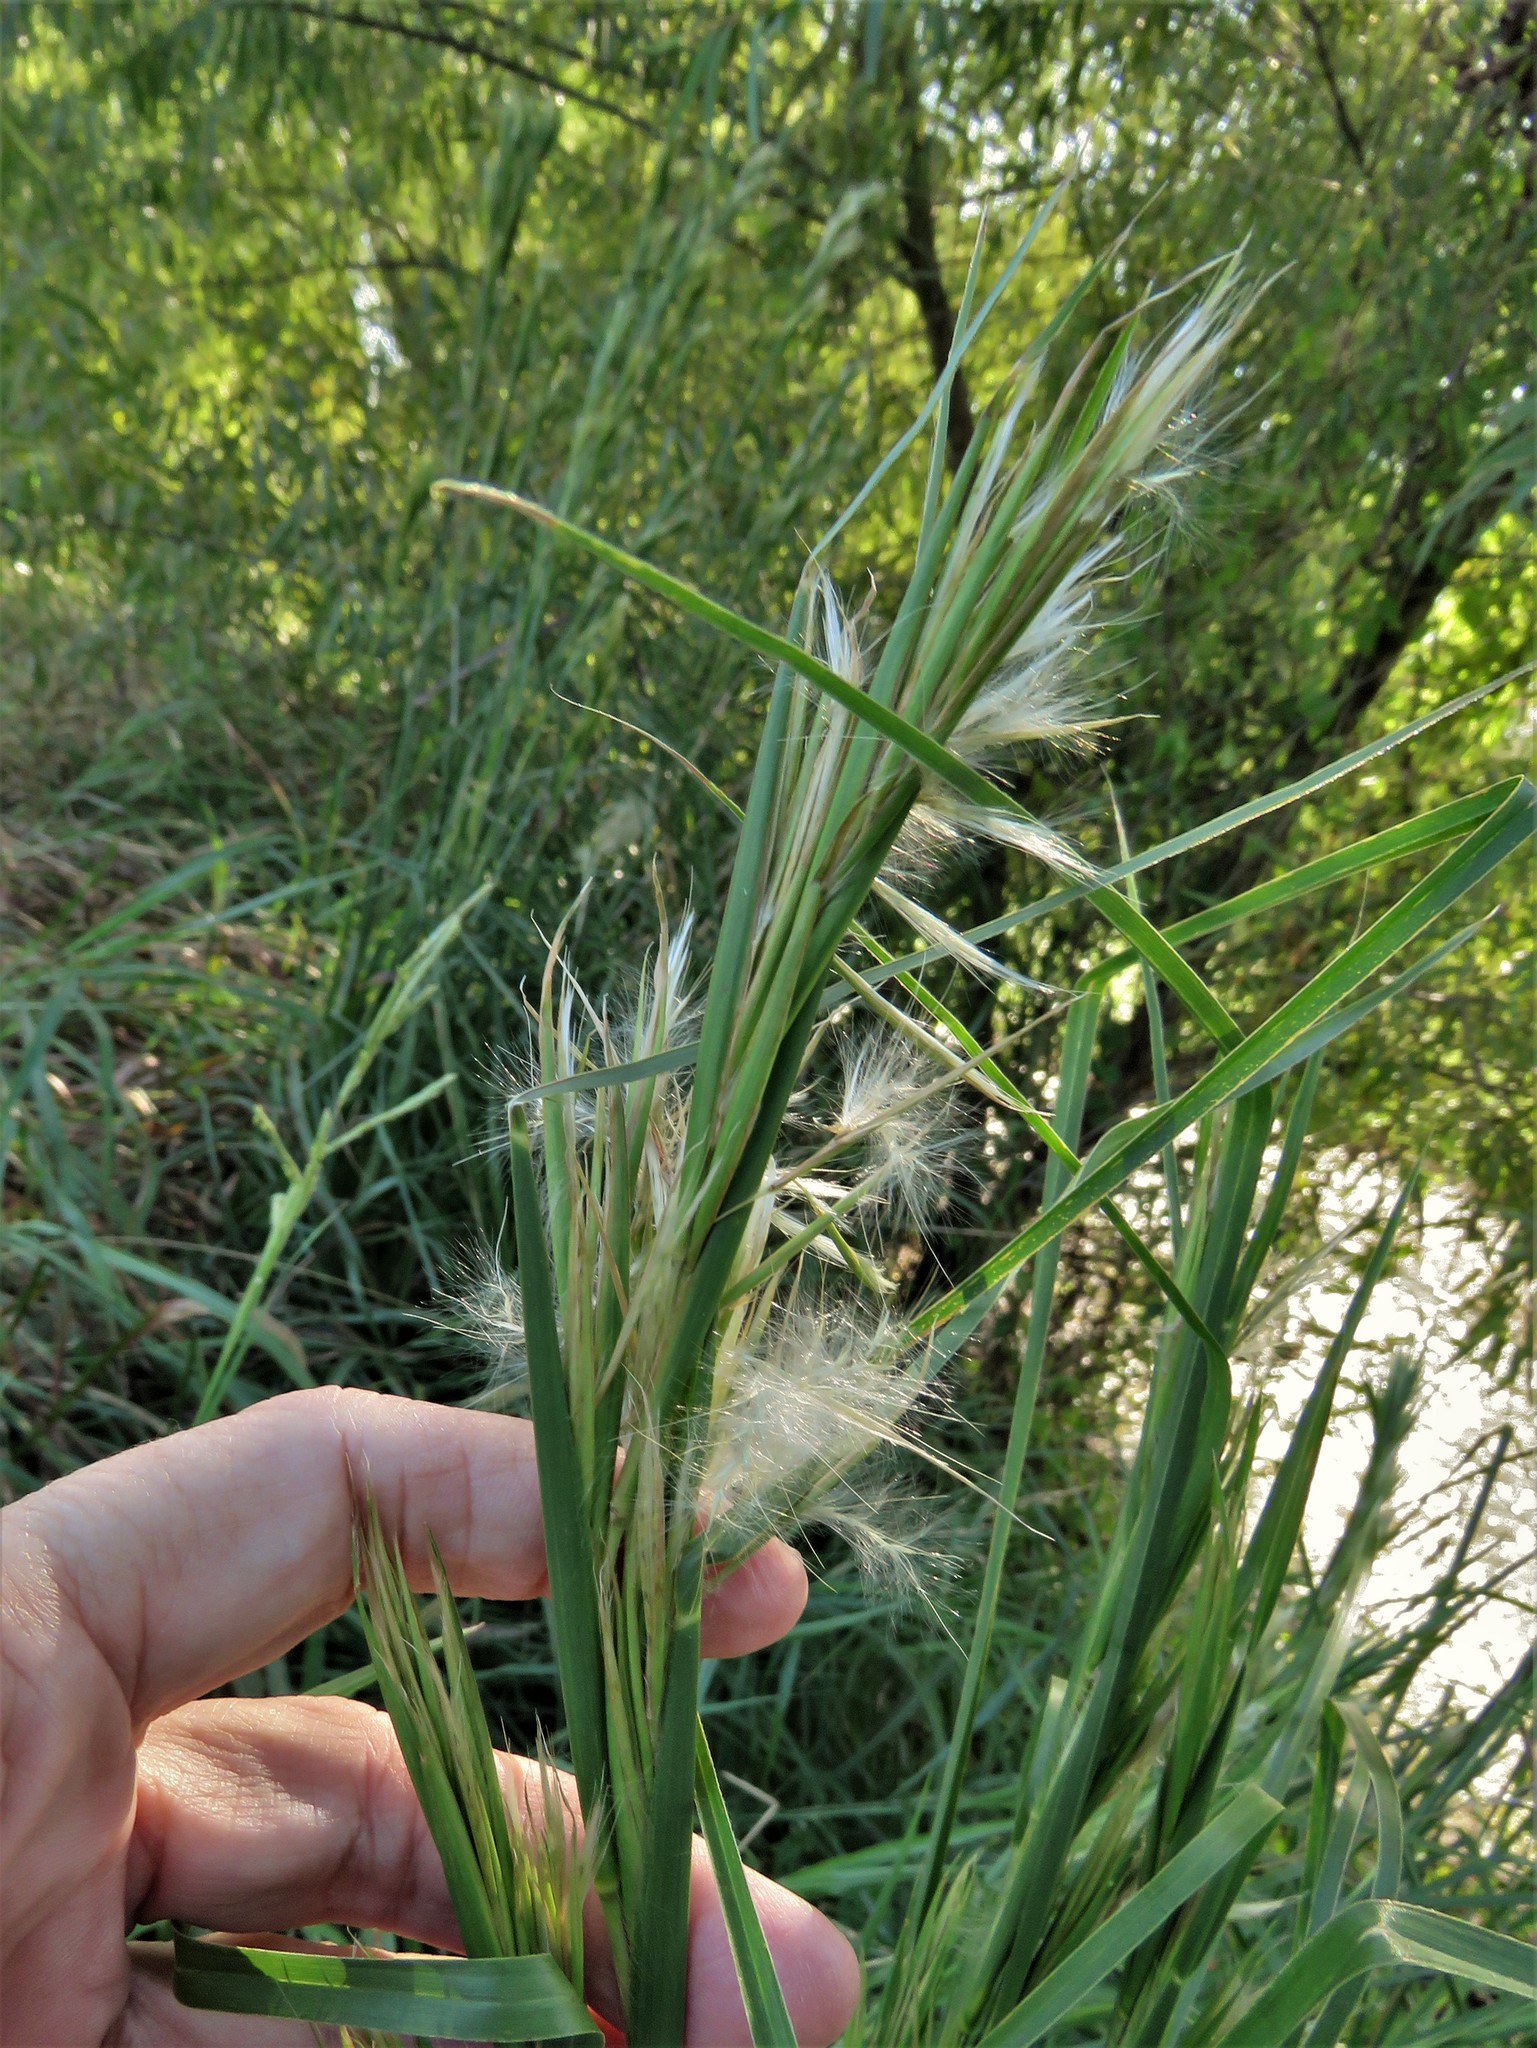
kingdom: Plantae
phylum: Tracheophyta
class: Liliopsida
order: Poales
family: Poaceae
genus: Andropogon
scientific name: Andropogon tenuispatheus
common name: Bushy bluestem
